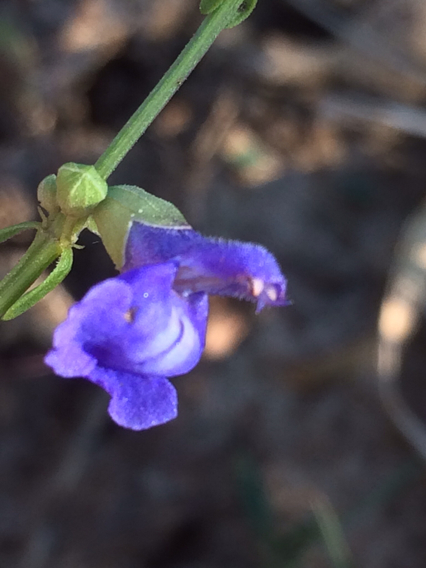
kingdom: Plantae
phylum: Tracheophyta
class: Magnoliopsida
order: Lamiales
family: Lamiaceae
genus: Salvia
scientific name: Salvia azurea
